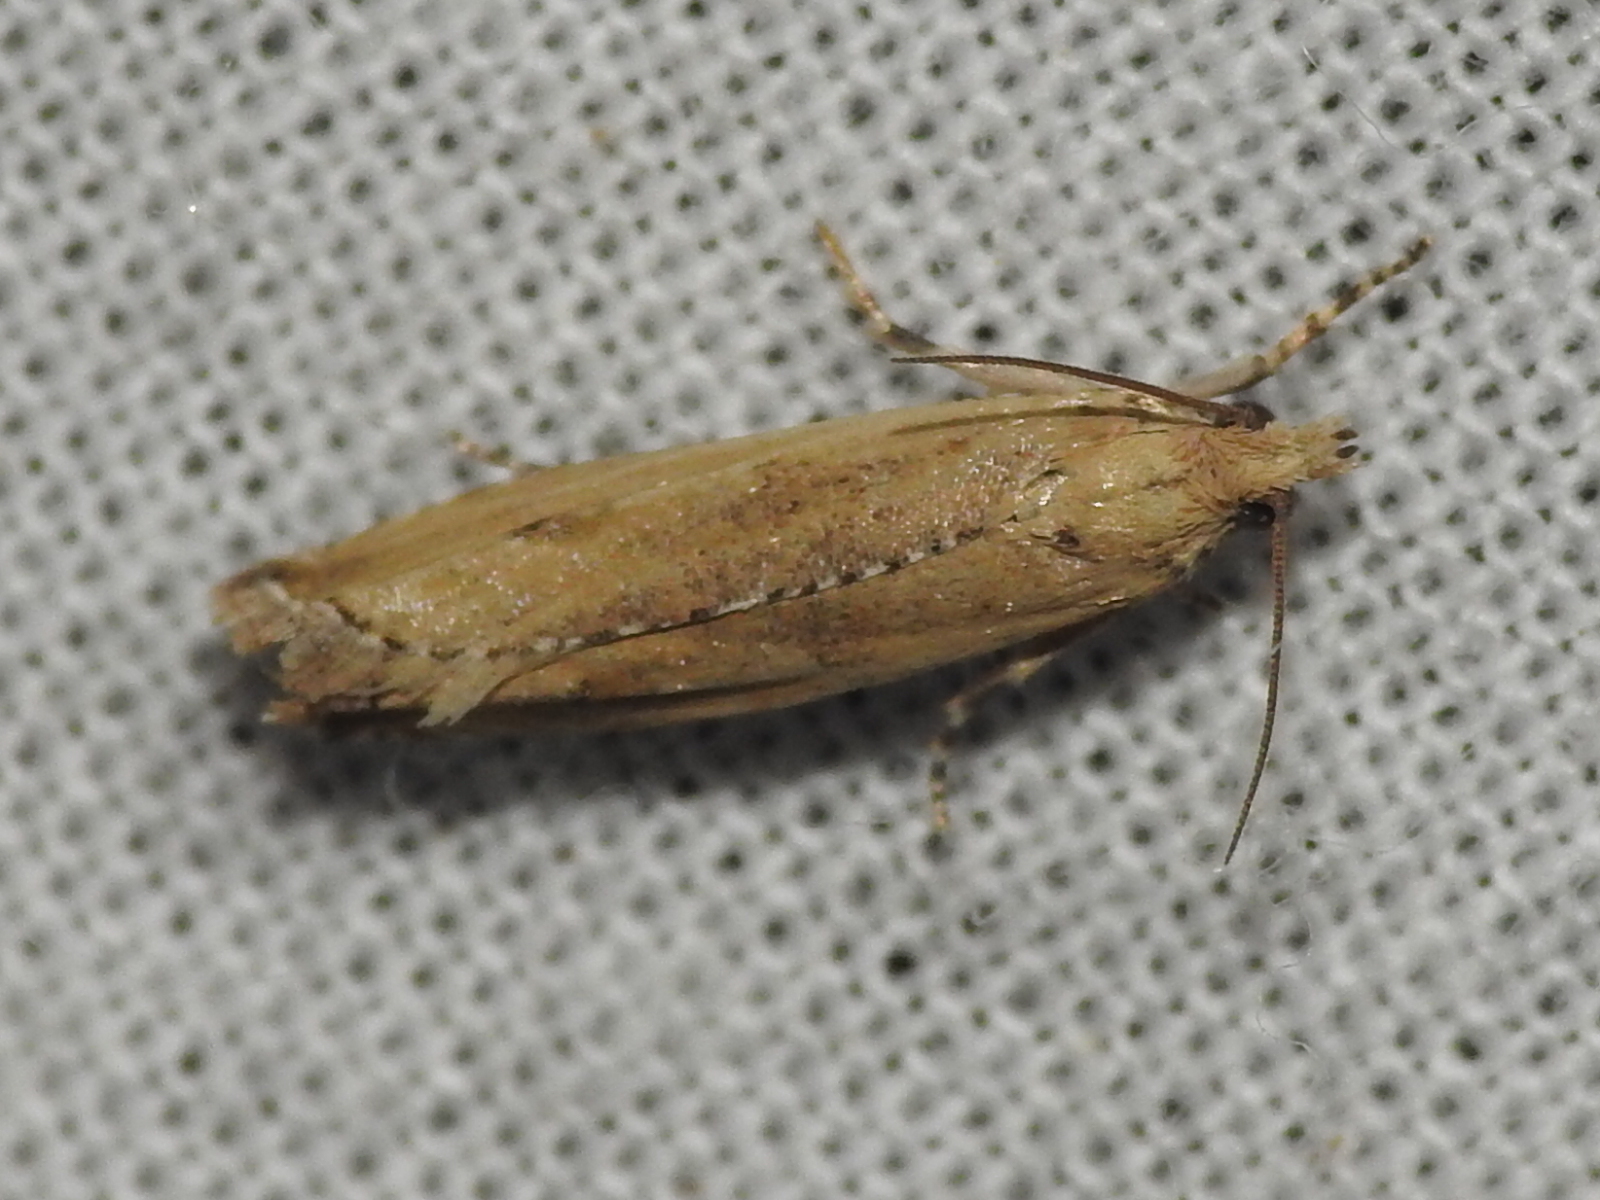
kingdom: Animalia
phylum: Arthropoda
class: Insecta
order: Lepidoptera
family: Tortricidae
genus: Bactra
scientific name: Bactra verutana
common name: Javelin moth
